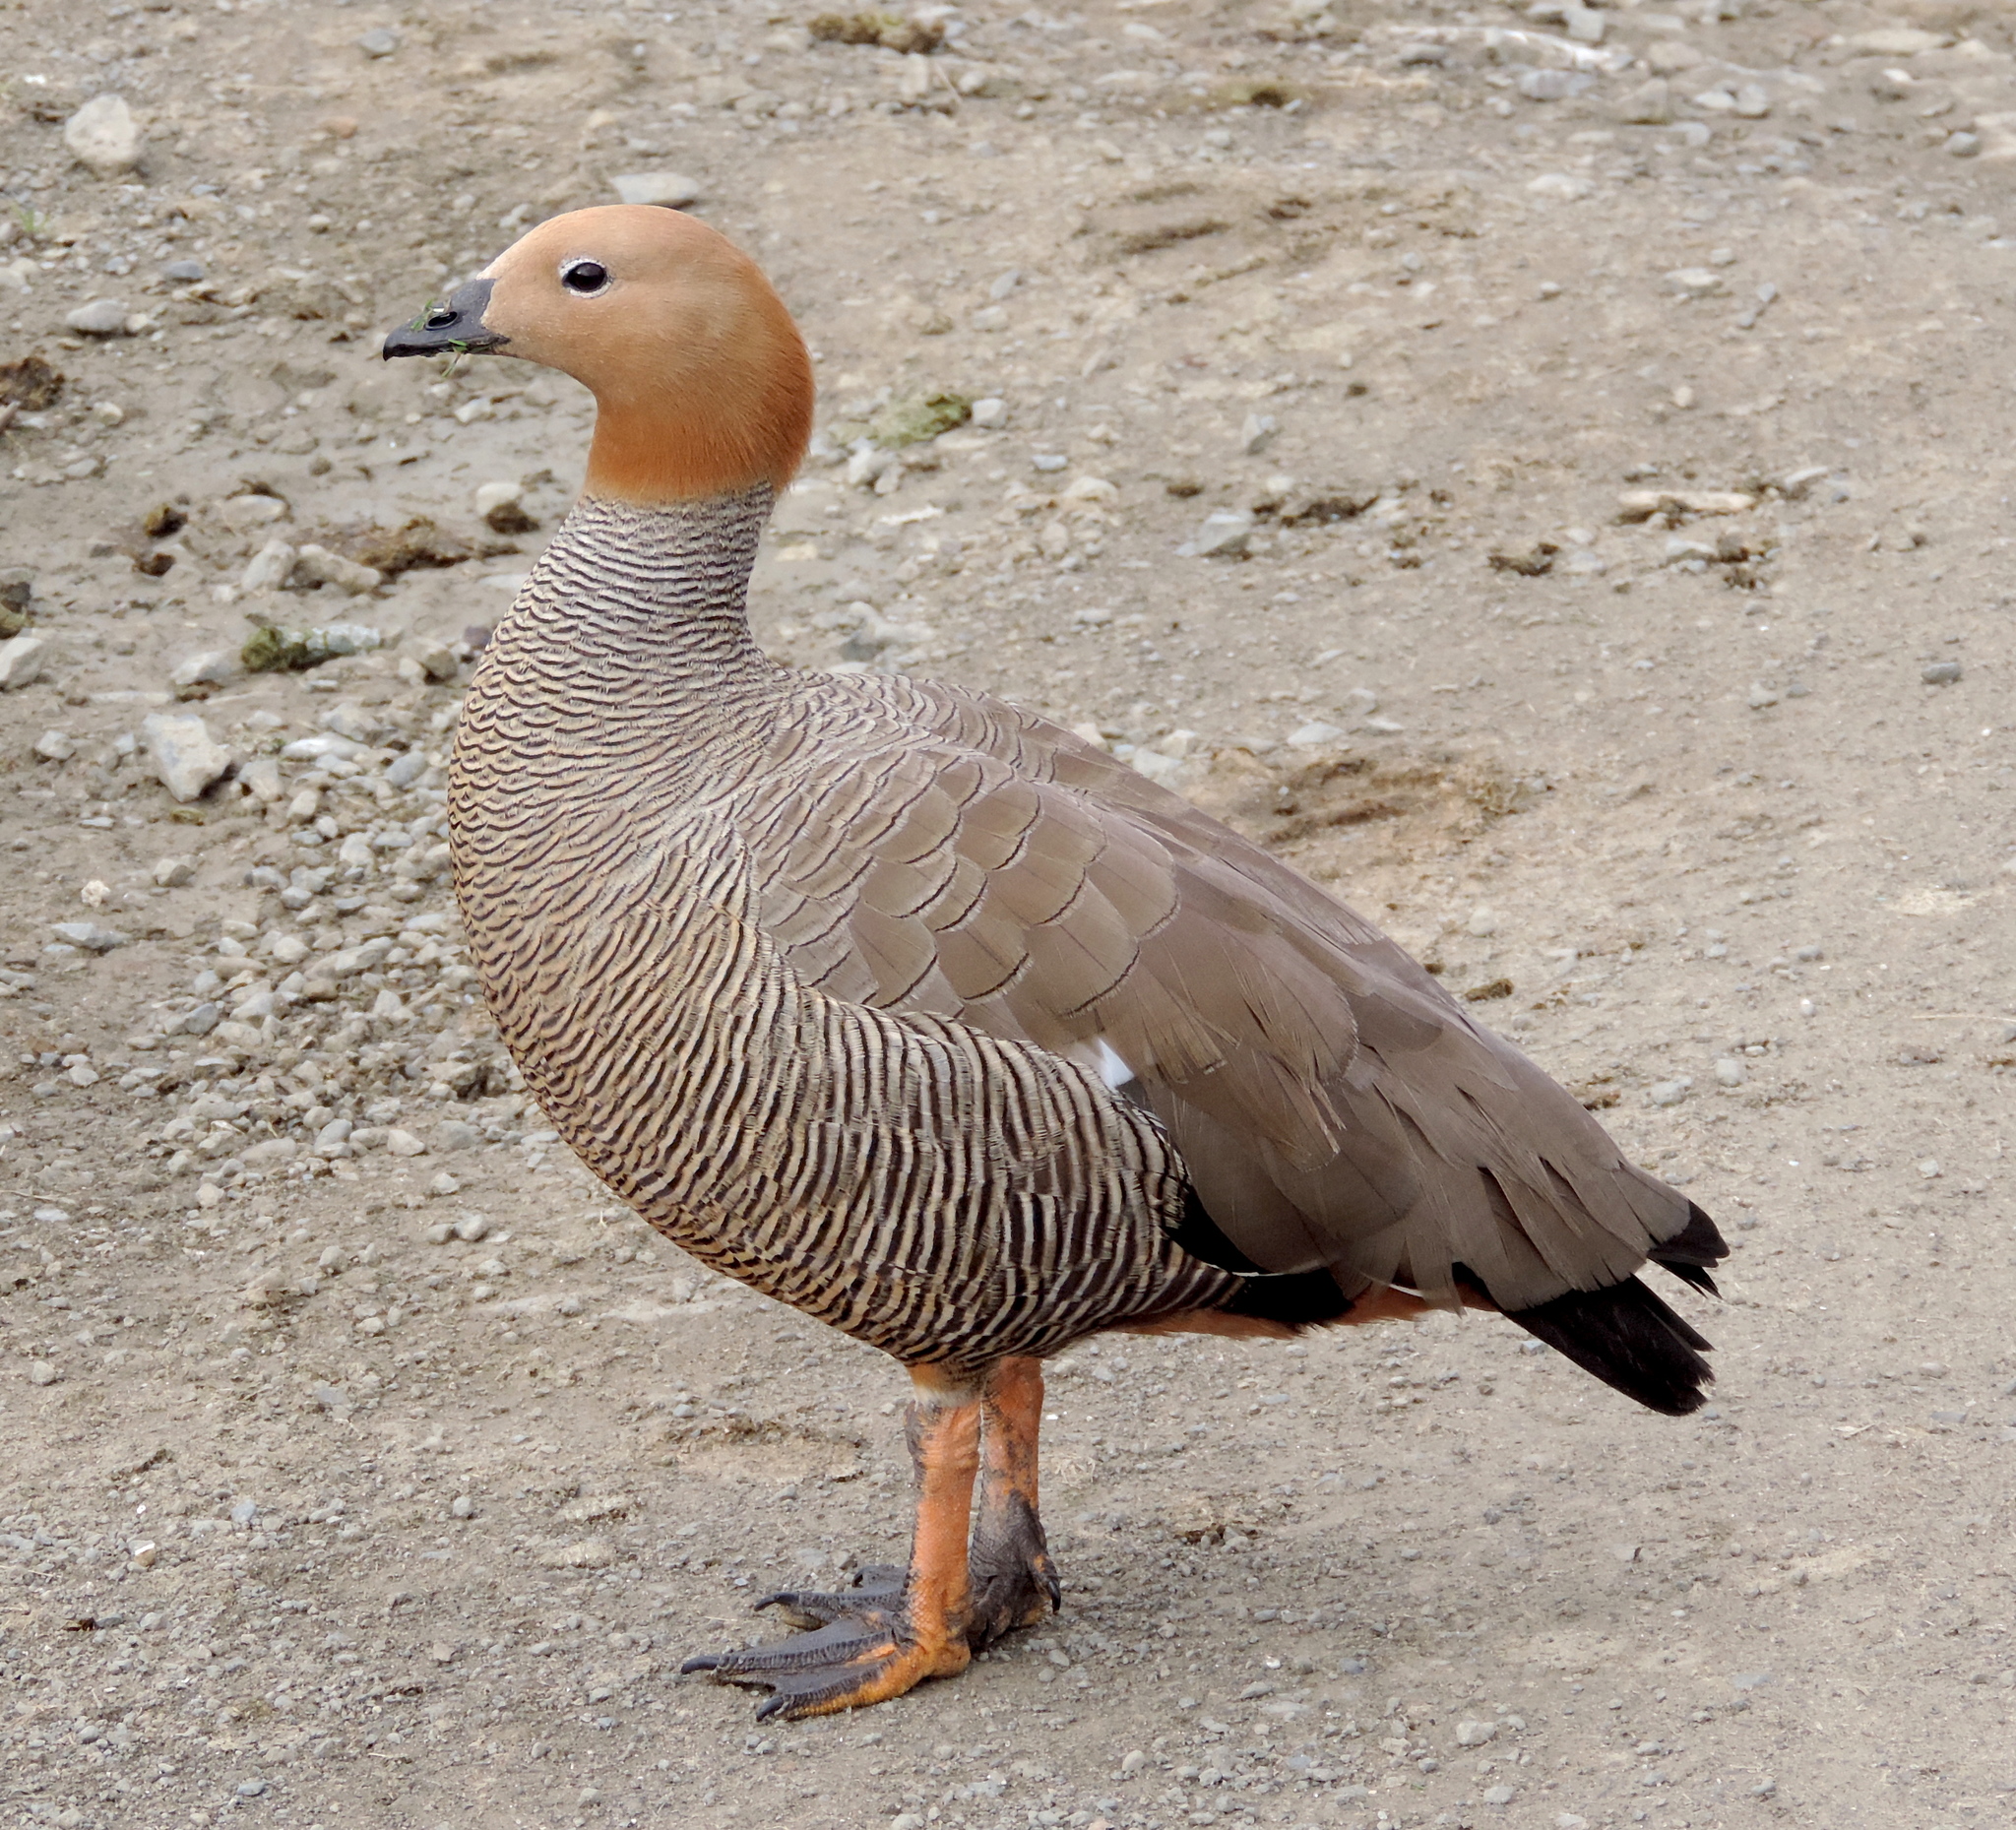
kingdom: Animalia
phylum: Chordata
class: Aves
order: Anseriformes
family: Anatidae
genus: Chloephaga
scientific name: Chloephaga rubidiceps
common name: Ruddy-headed goose
